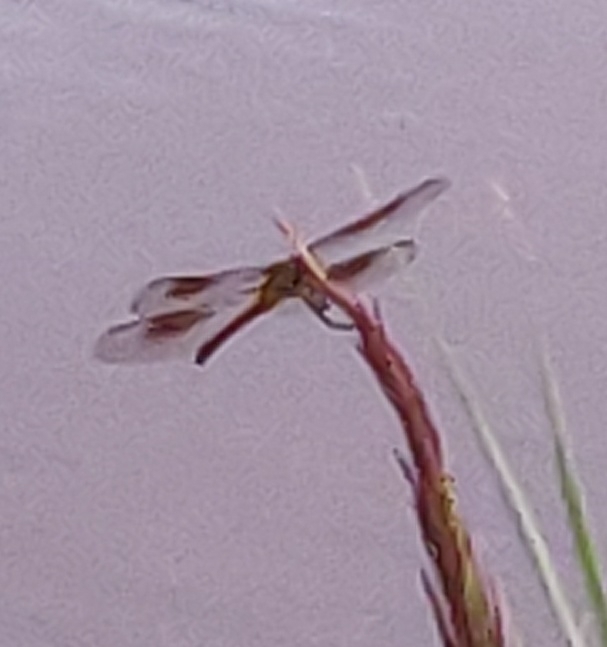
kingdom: Animalia
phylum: Arthropoda
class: Insecta
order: Odonata
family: Libellulidae
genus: Brachymesia
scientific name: Brachymesia gravida
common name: Four-spotted pennant
